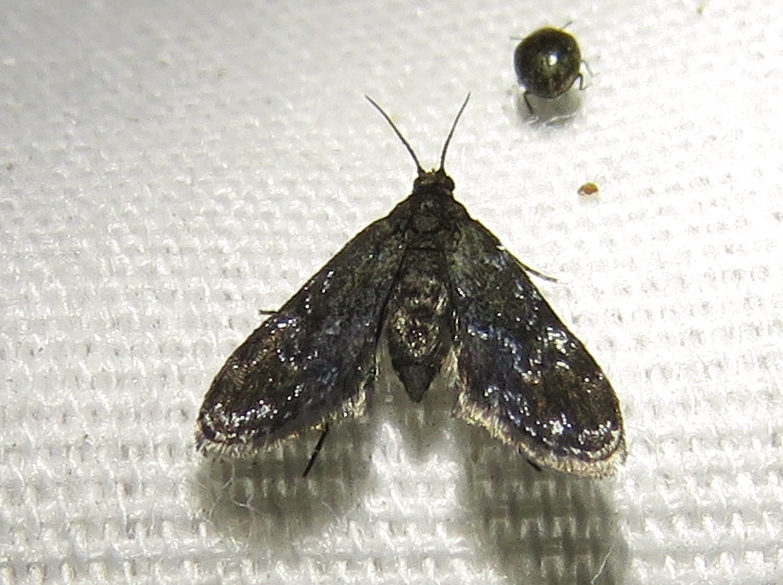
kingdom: Animalia
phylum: Arthropoda
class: Insecta
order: Lepidoptera
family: Crambidae
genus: Elophila
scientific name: Elophila tinealis
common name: Black duckweed moth
